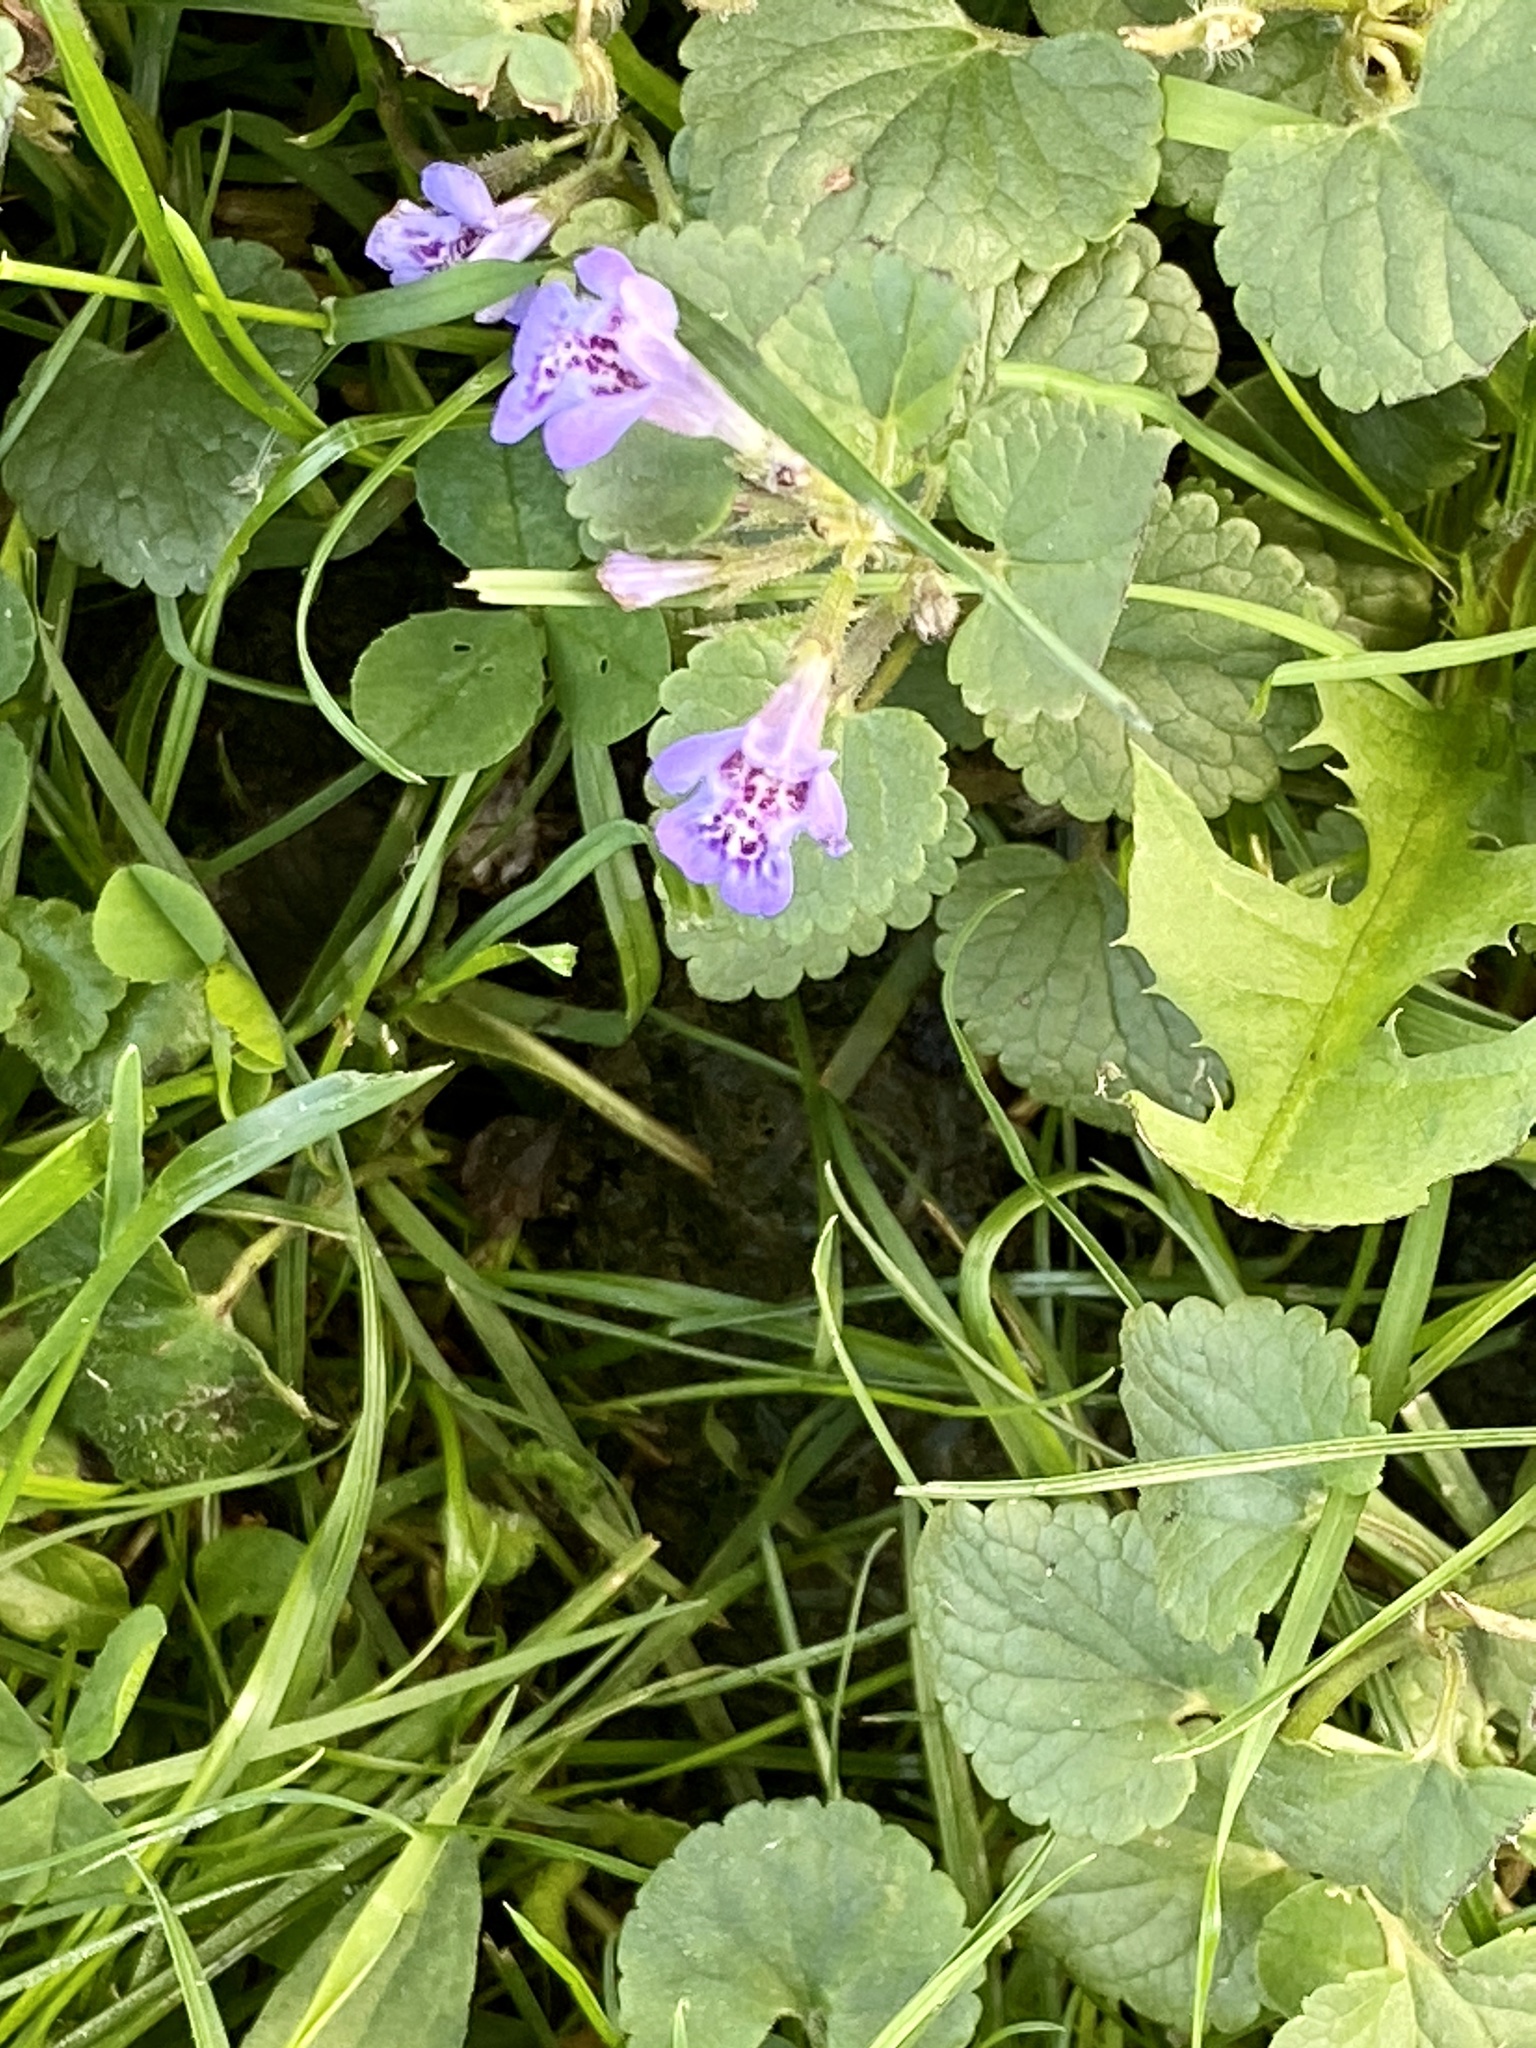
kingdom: Plantae
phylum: Tracheophyta
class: Magnoliopsida
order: Lamiales
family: Lamiaceae
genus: Glechoma
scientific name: Glechoma hederacea
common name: Ground ivy
